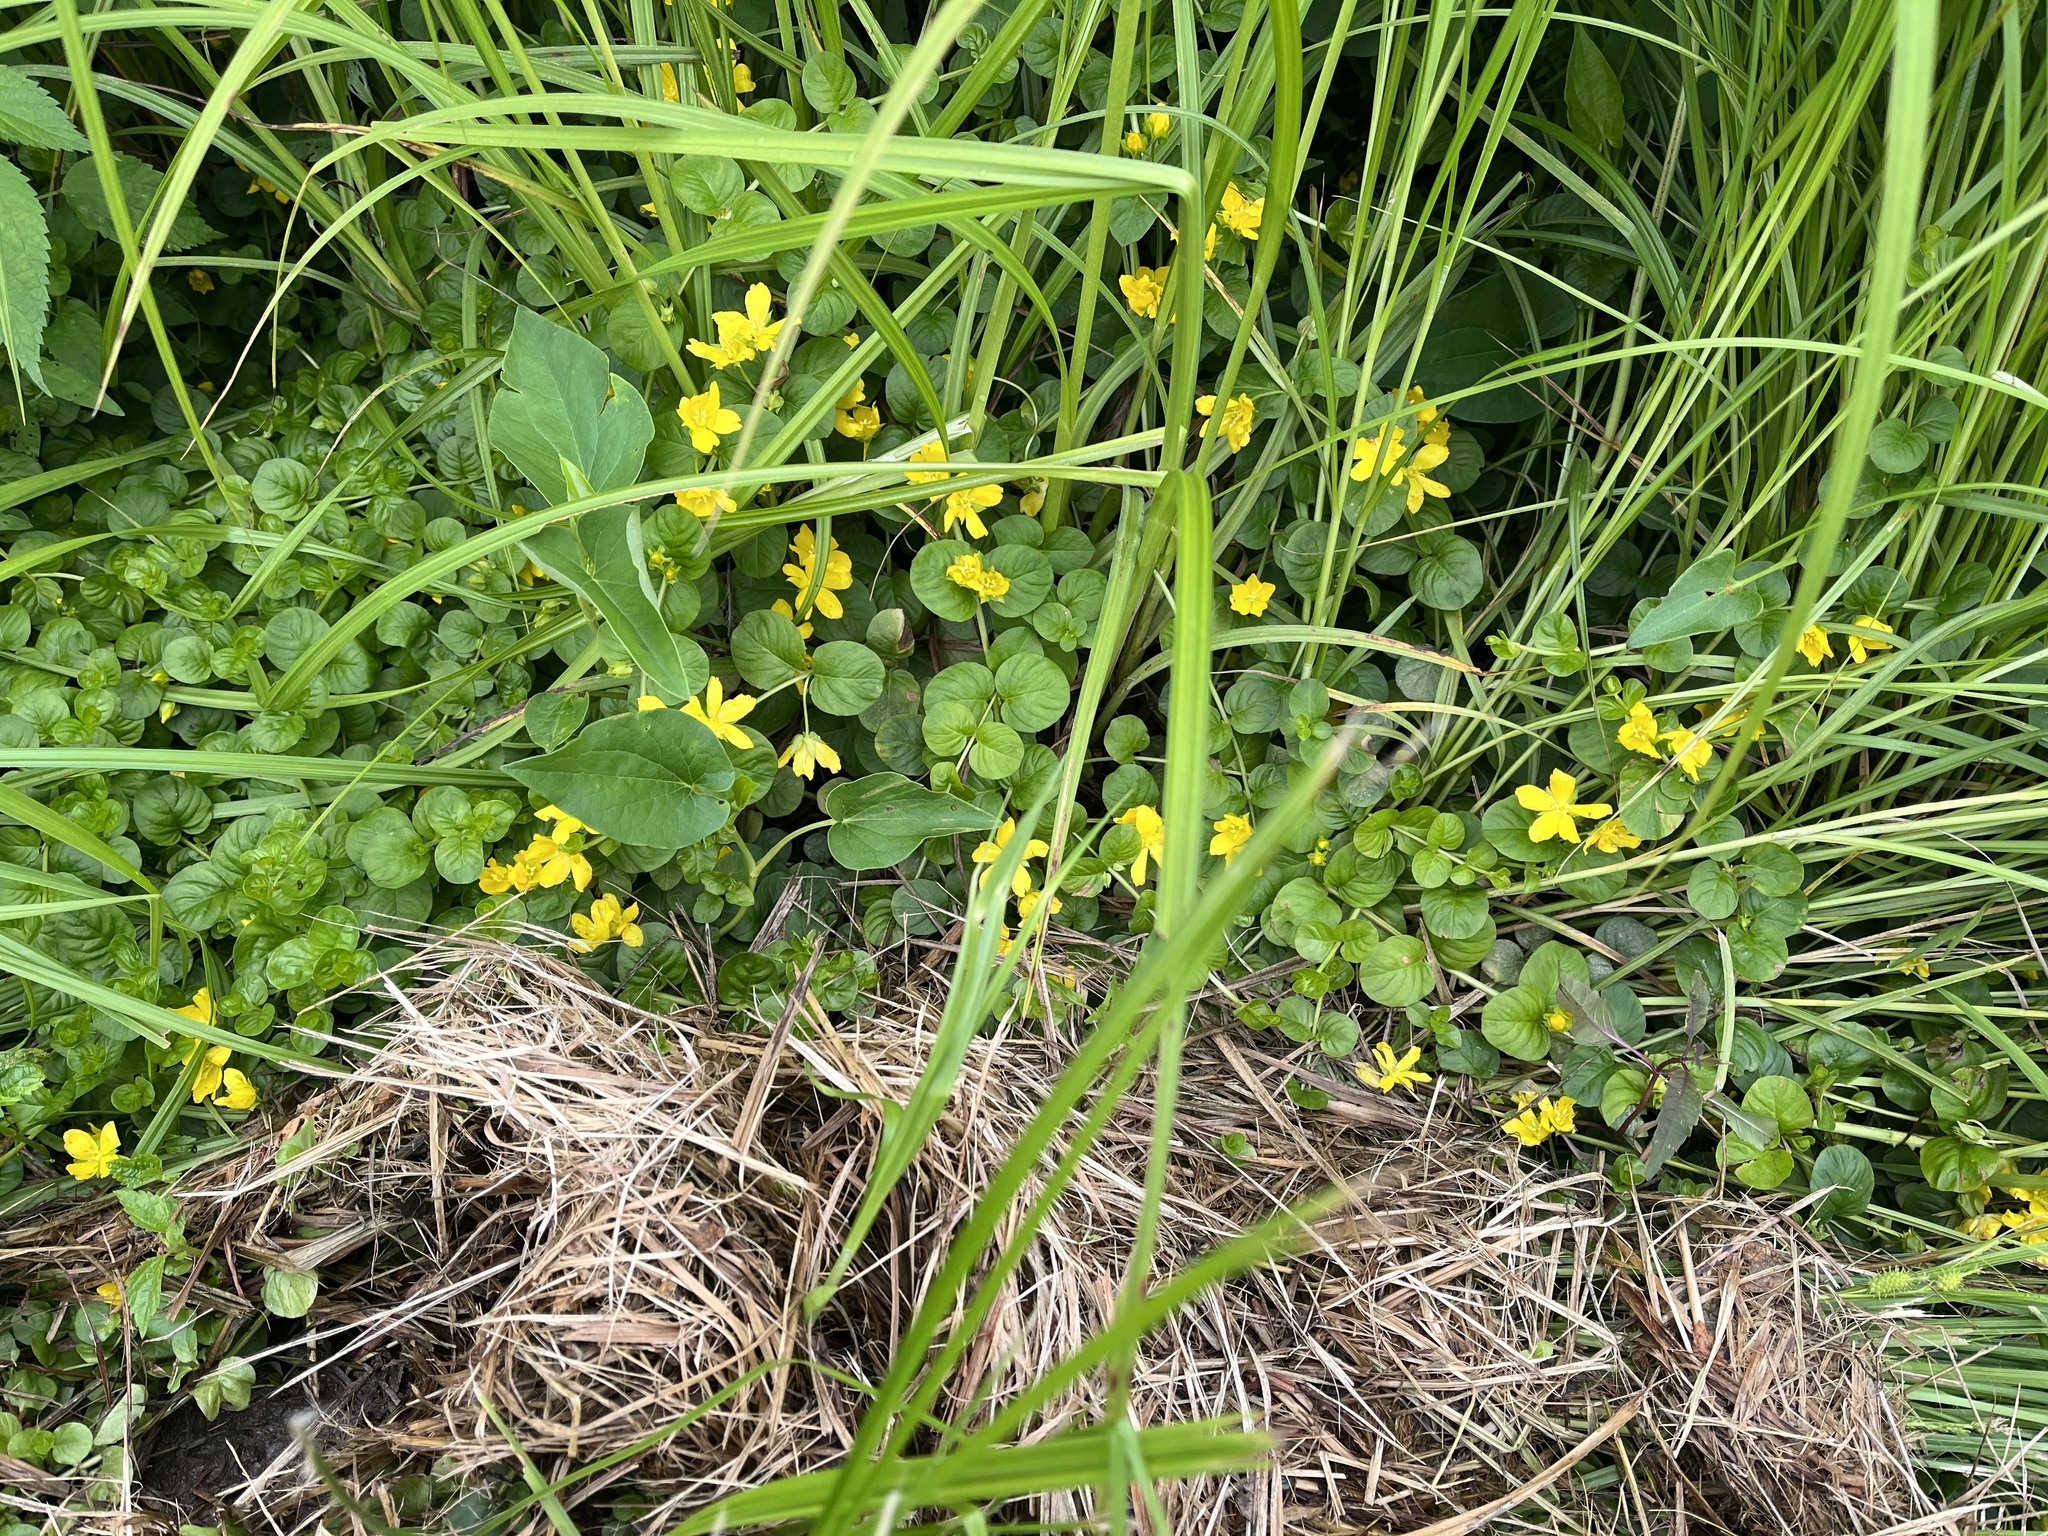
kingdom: Plantae
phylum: Tracheophyta
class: Magnoliopsida
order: Ericales
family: Primulaceae
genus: Lysimachia
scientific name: Lysimachia nummularia
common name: Moneywort
